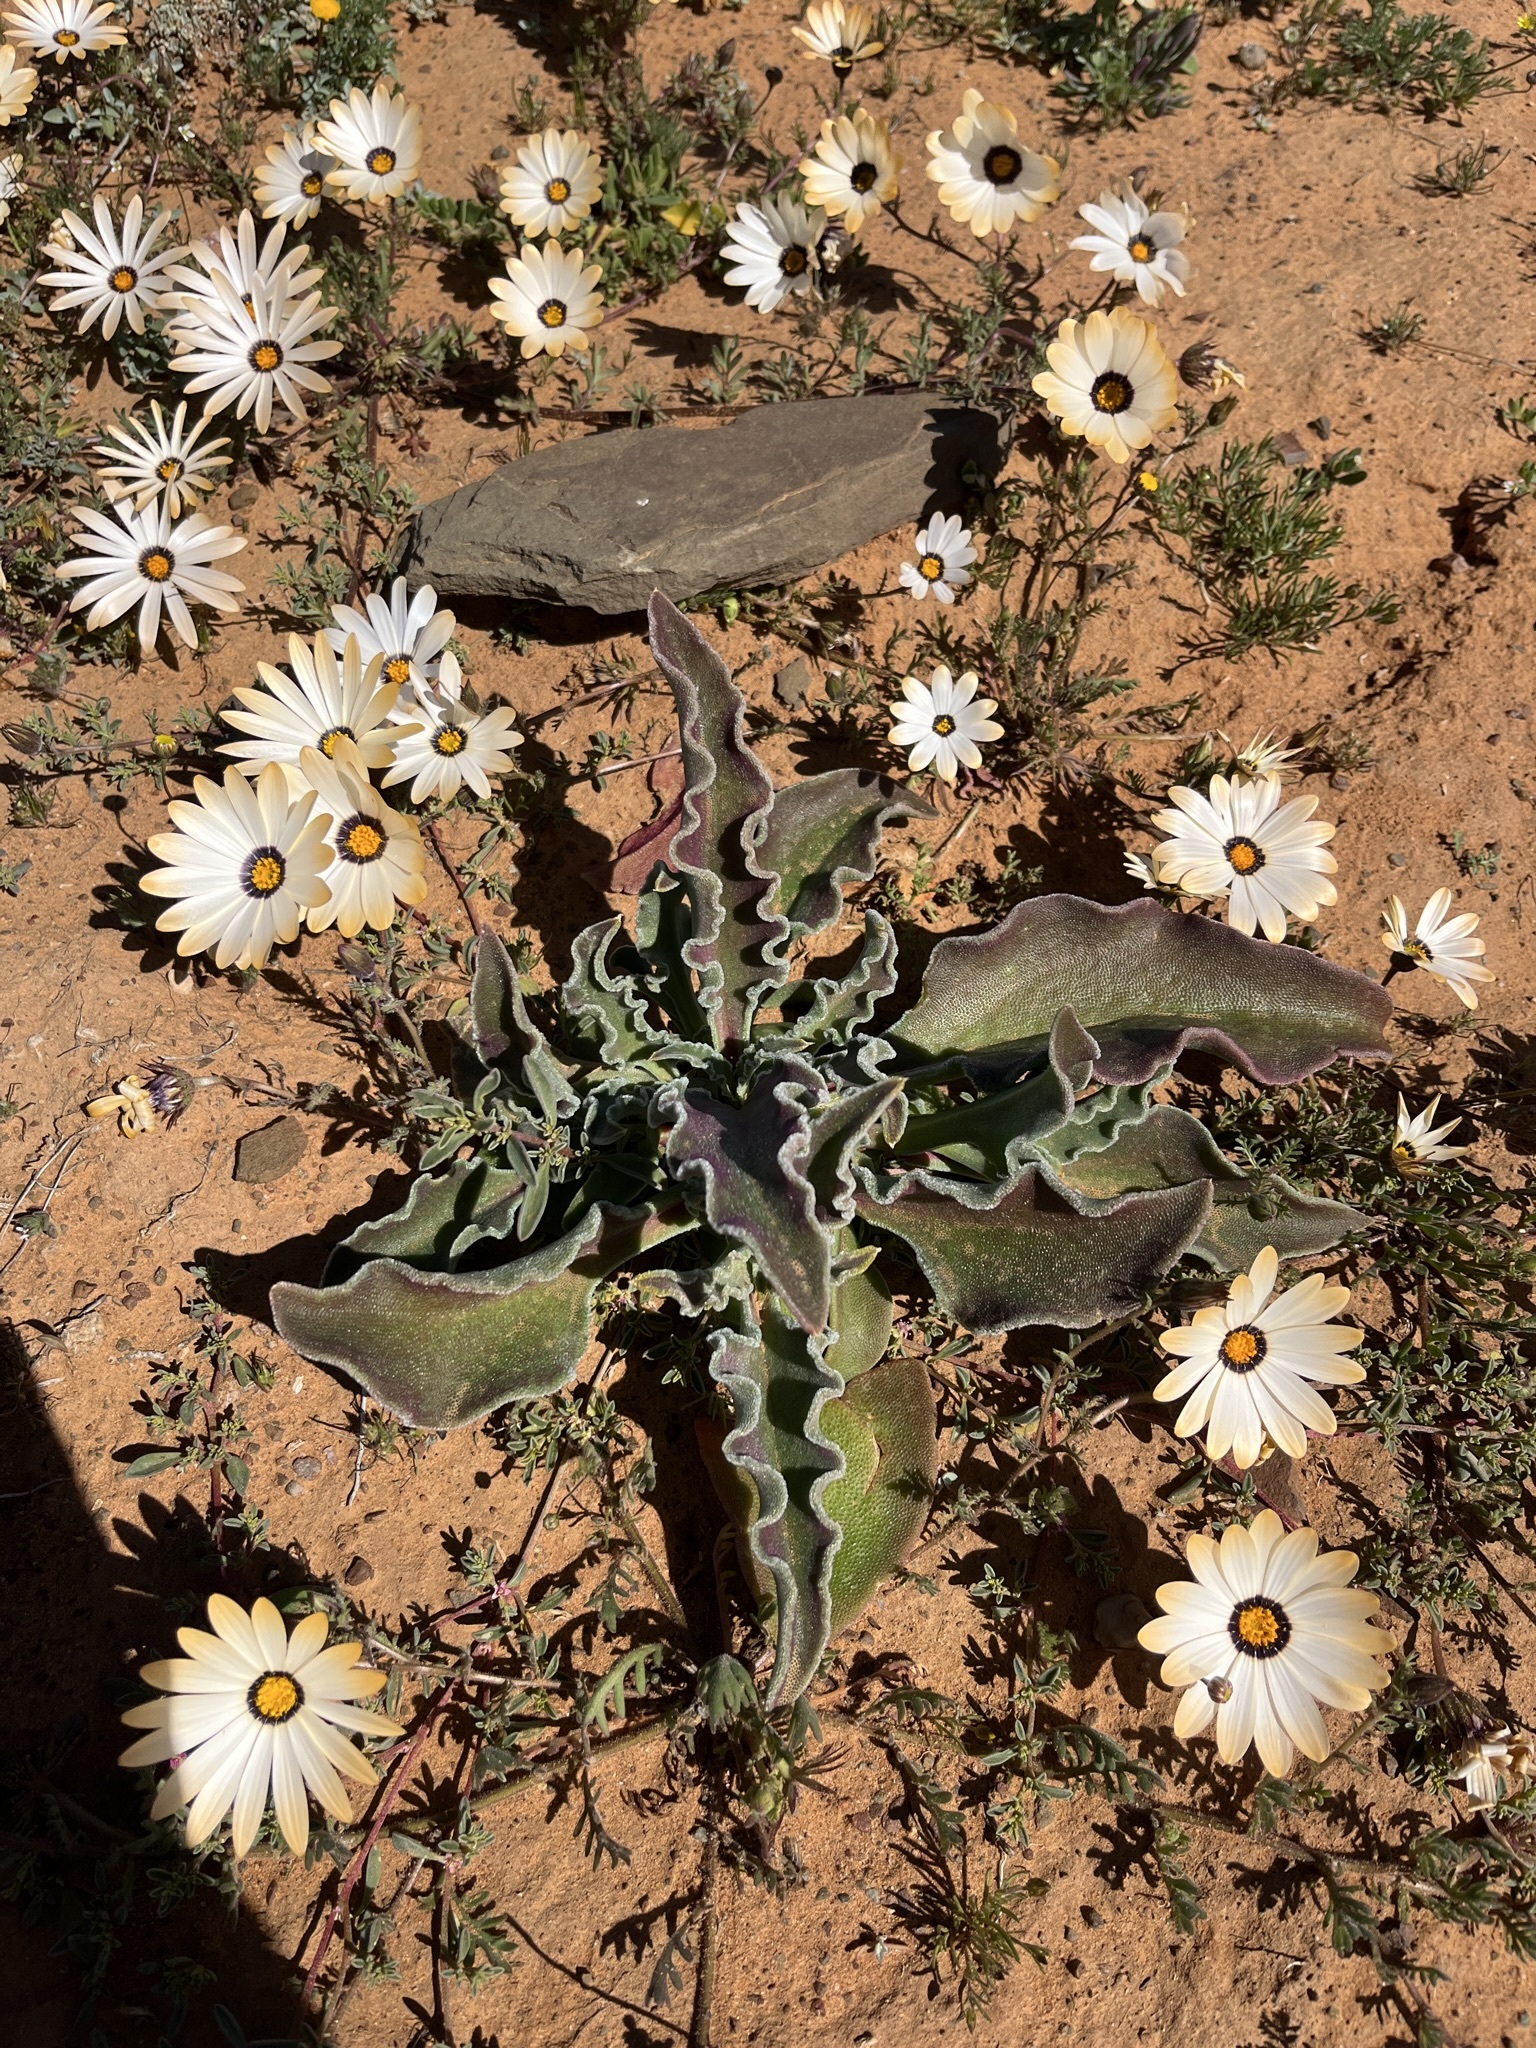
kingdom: Plantae
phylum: Tracheophyta
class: Magnoliopsida
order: Caryophyllales
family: Aizoaceae
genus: Mesembryanthemum
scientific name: Mesembryanthemum guerichianum
